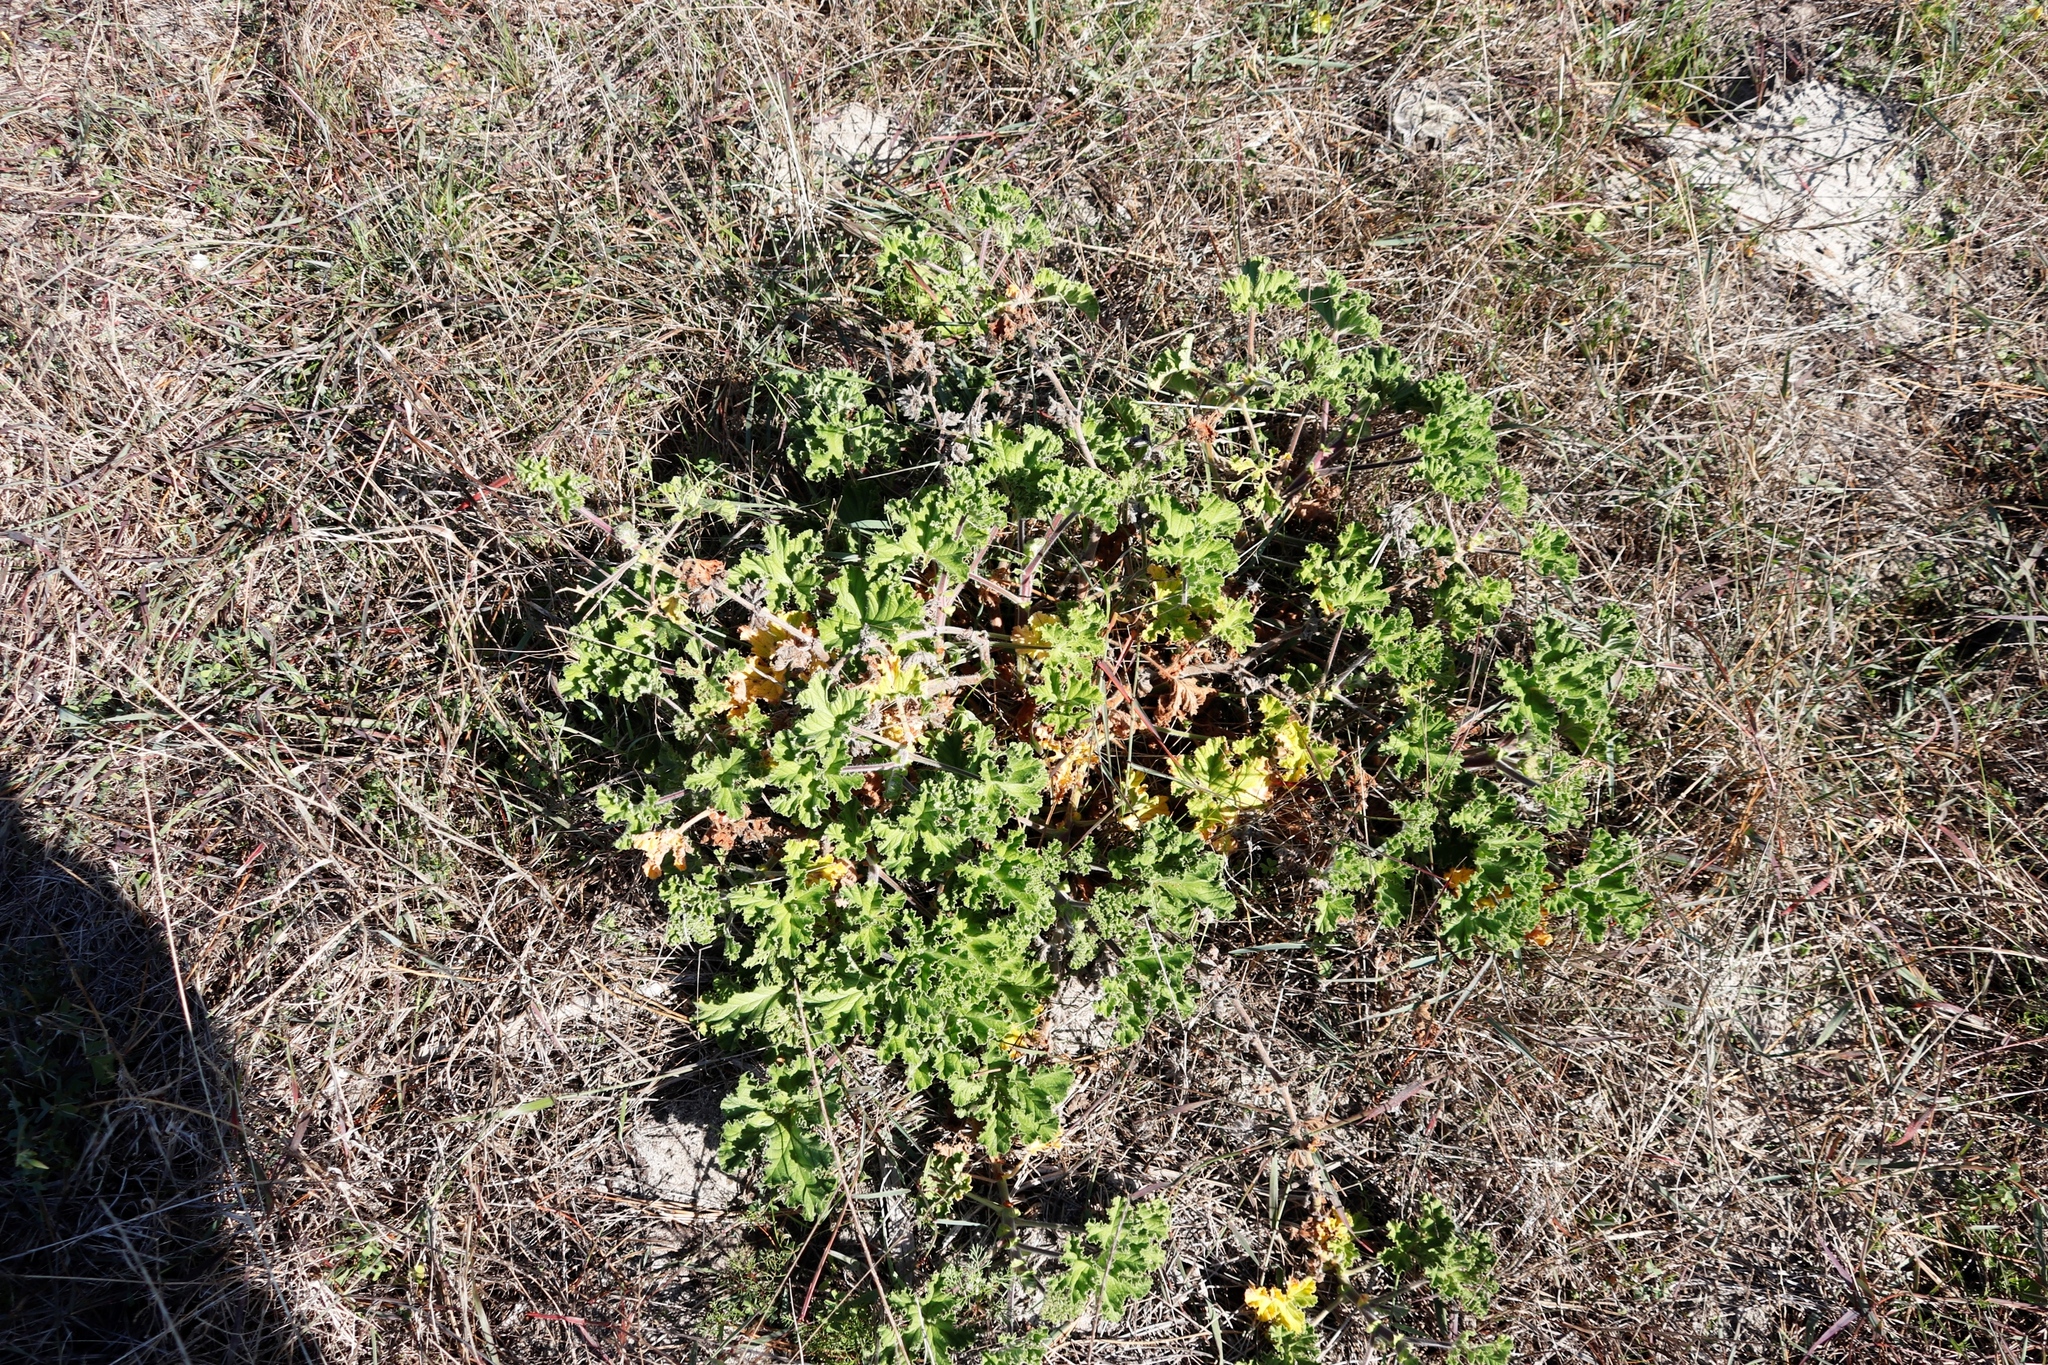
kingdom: Plantae
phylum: Tracheophyta
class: Magnoliopsida
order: Geraniales
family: Geraniaceae
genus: Pelargonium
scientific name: Pelargonium capitatum
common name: Rose scented geranium
